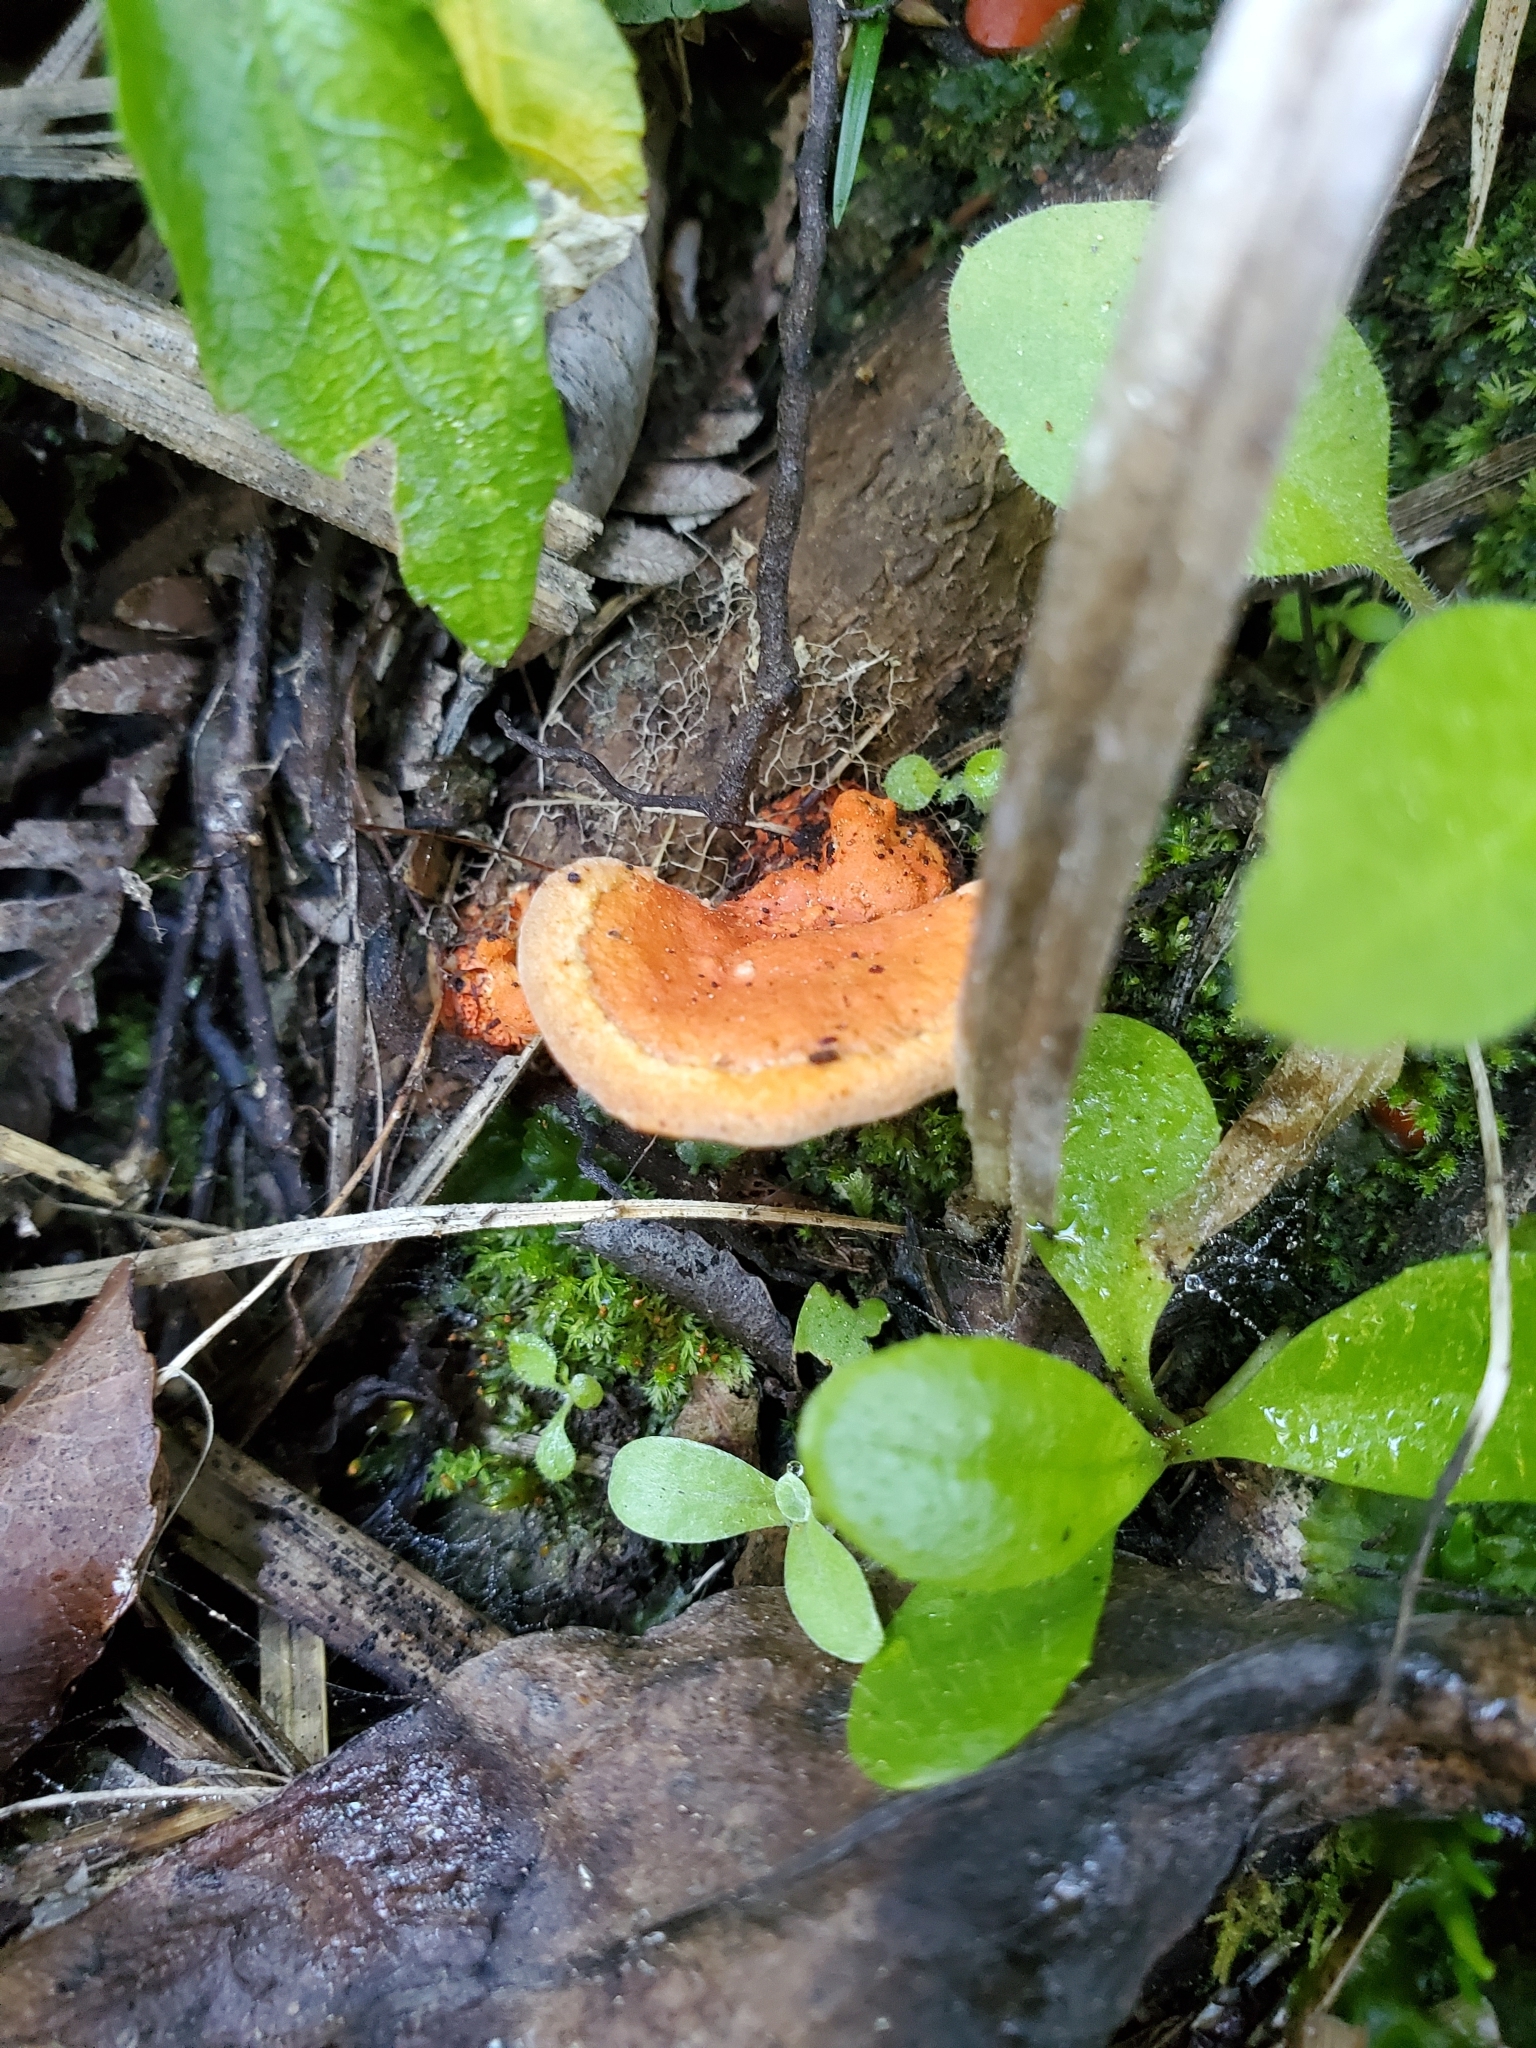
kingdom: Fungi
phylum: Basidiomycota
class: Agaricomycetes
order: Polyporales
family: Polyporaceae
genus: Trametes
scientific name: Trametes coccinea
